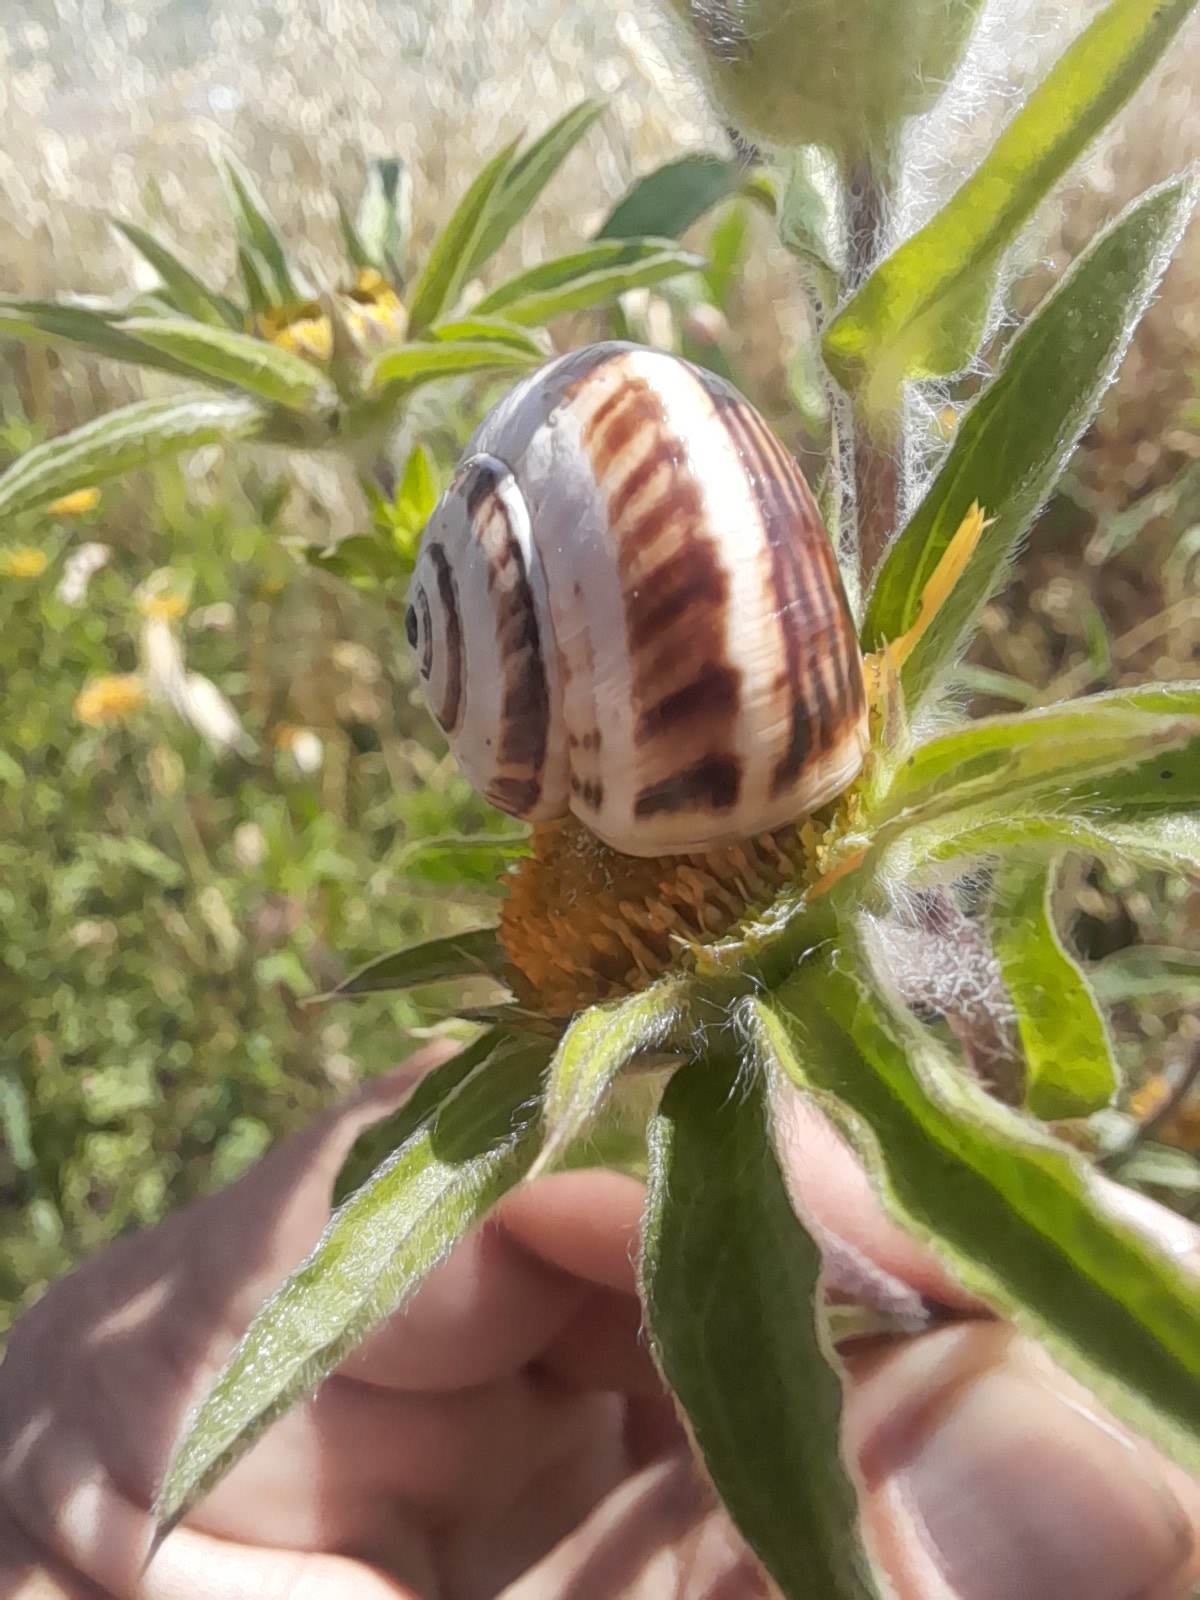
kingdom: Animalia
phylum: Mollusca
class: Gastropoda
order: Stylommatophora
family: Helicidae
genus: Theba
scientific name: Theba pisana
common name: White snail
